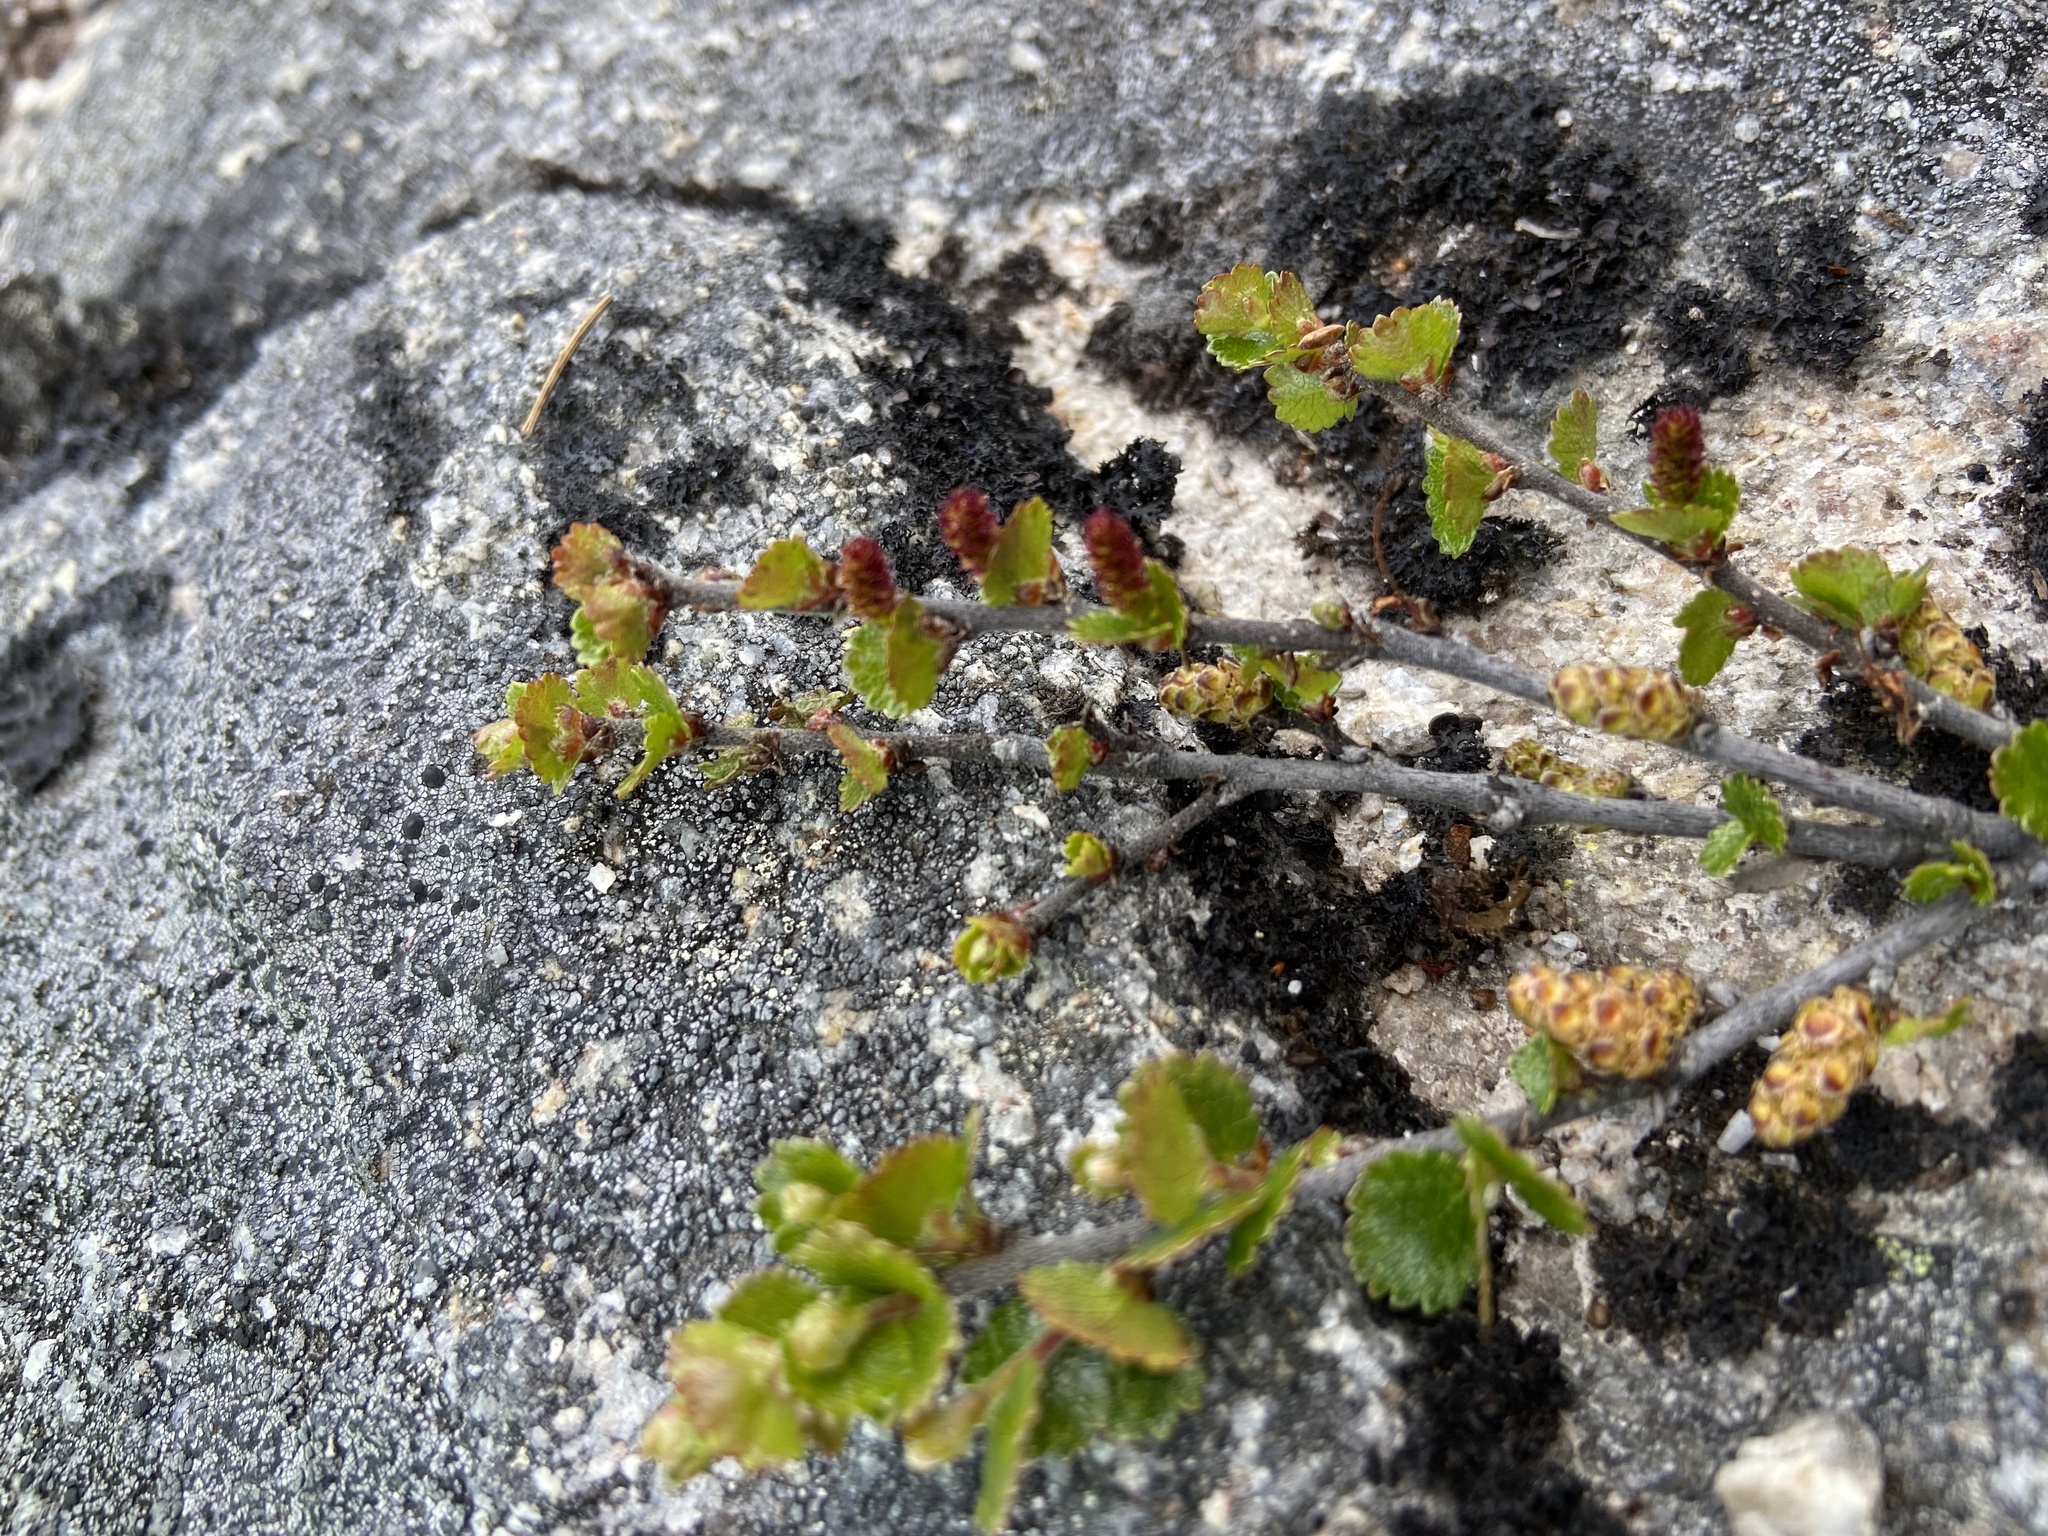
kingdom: Plantae
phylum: Tracheophyta
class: Magnoliopsida
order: Fagales
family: Betulaceae
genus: Betula
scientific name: Betula nana
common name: Arctic dwarf birch
